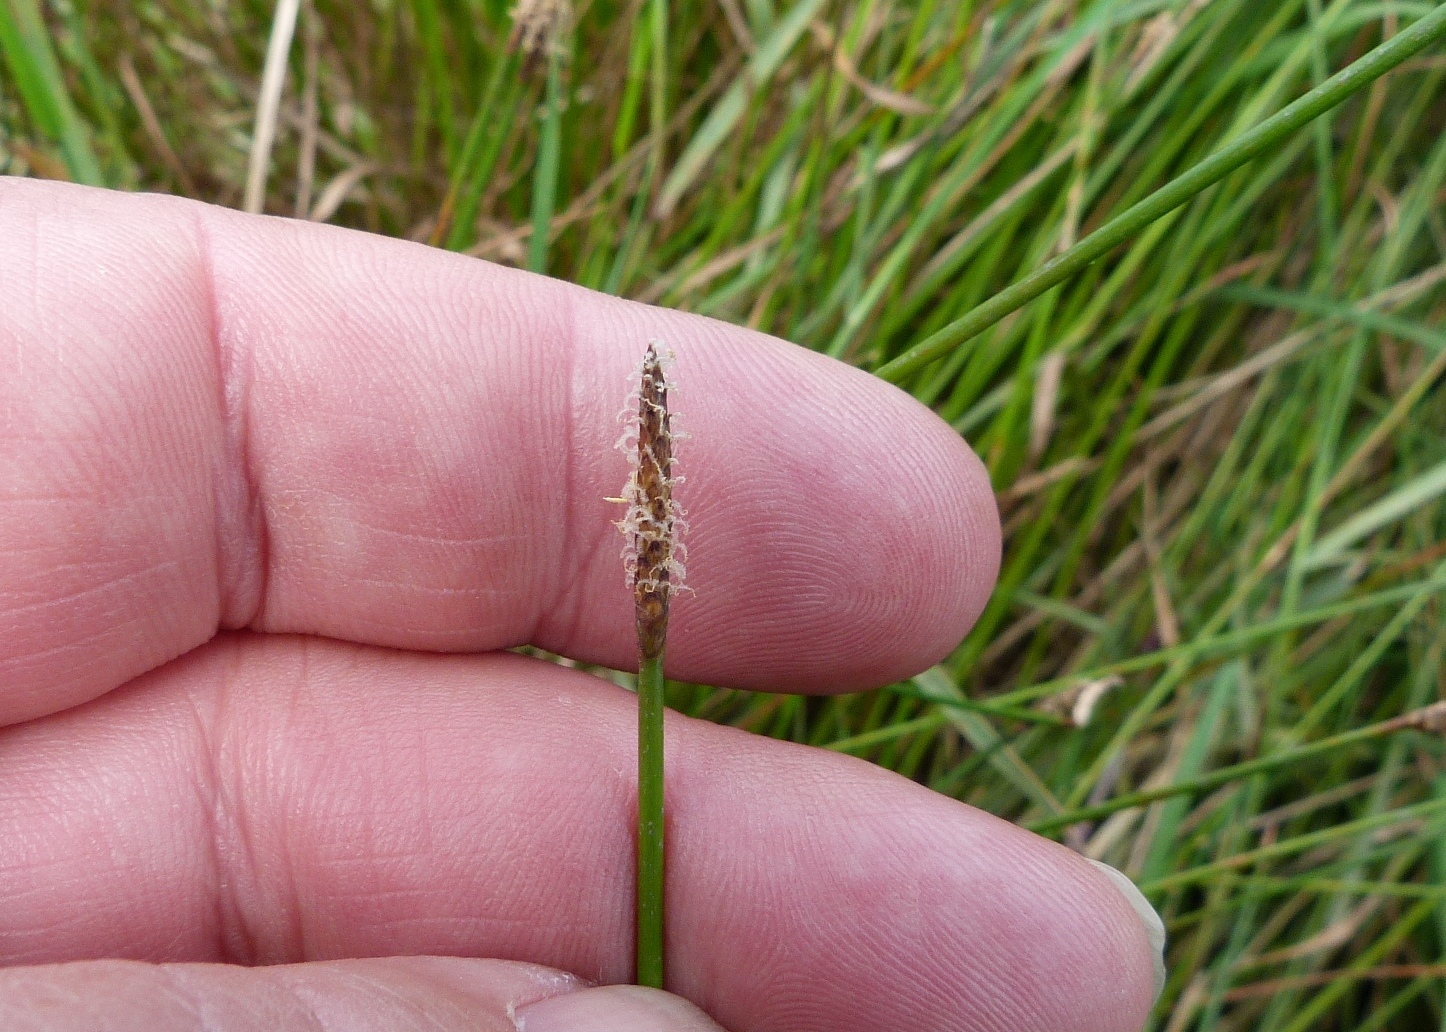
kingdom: Plantae
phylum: Tracheophyta
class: Liliopsida
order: Poales
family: Juncaceae
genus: Juncus
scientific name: Juncus edgariae
